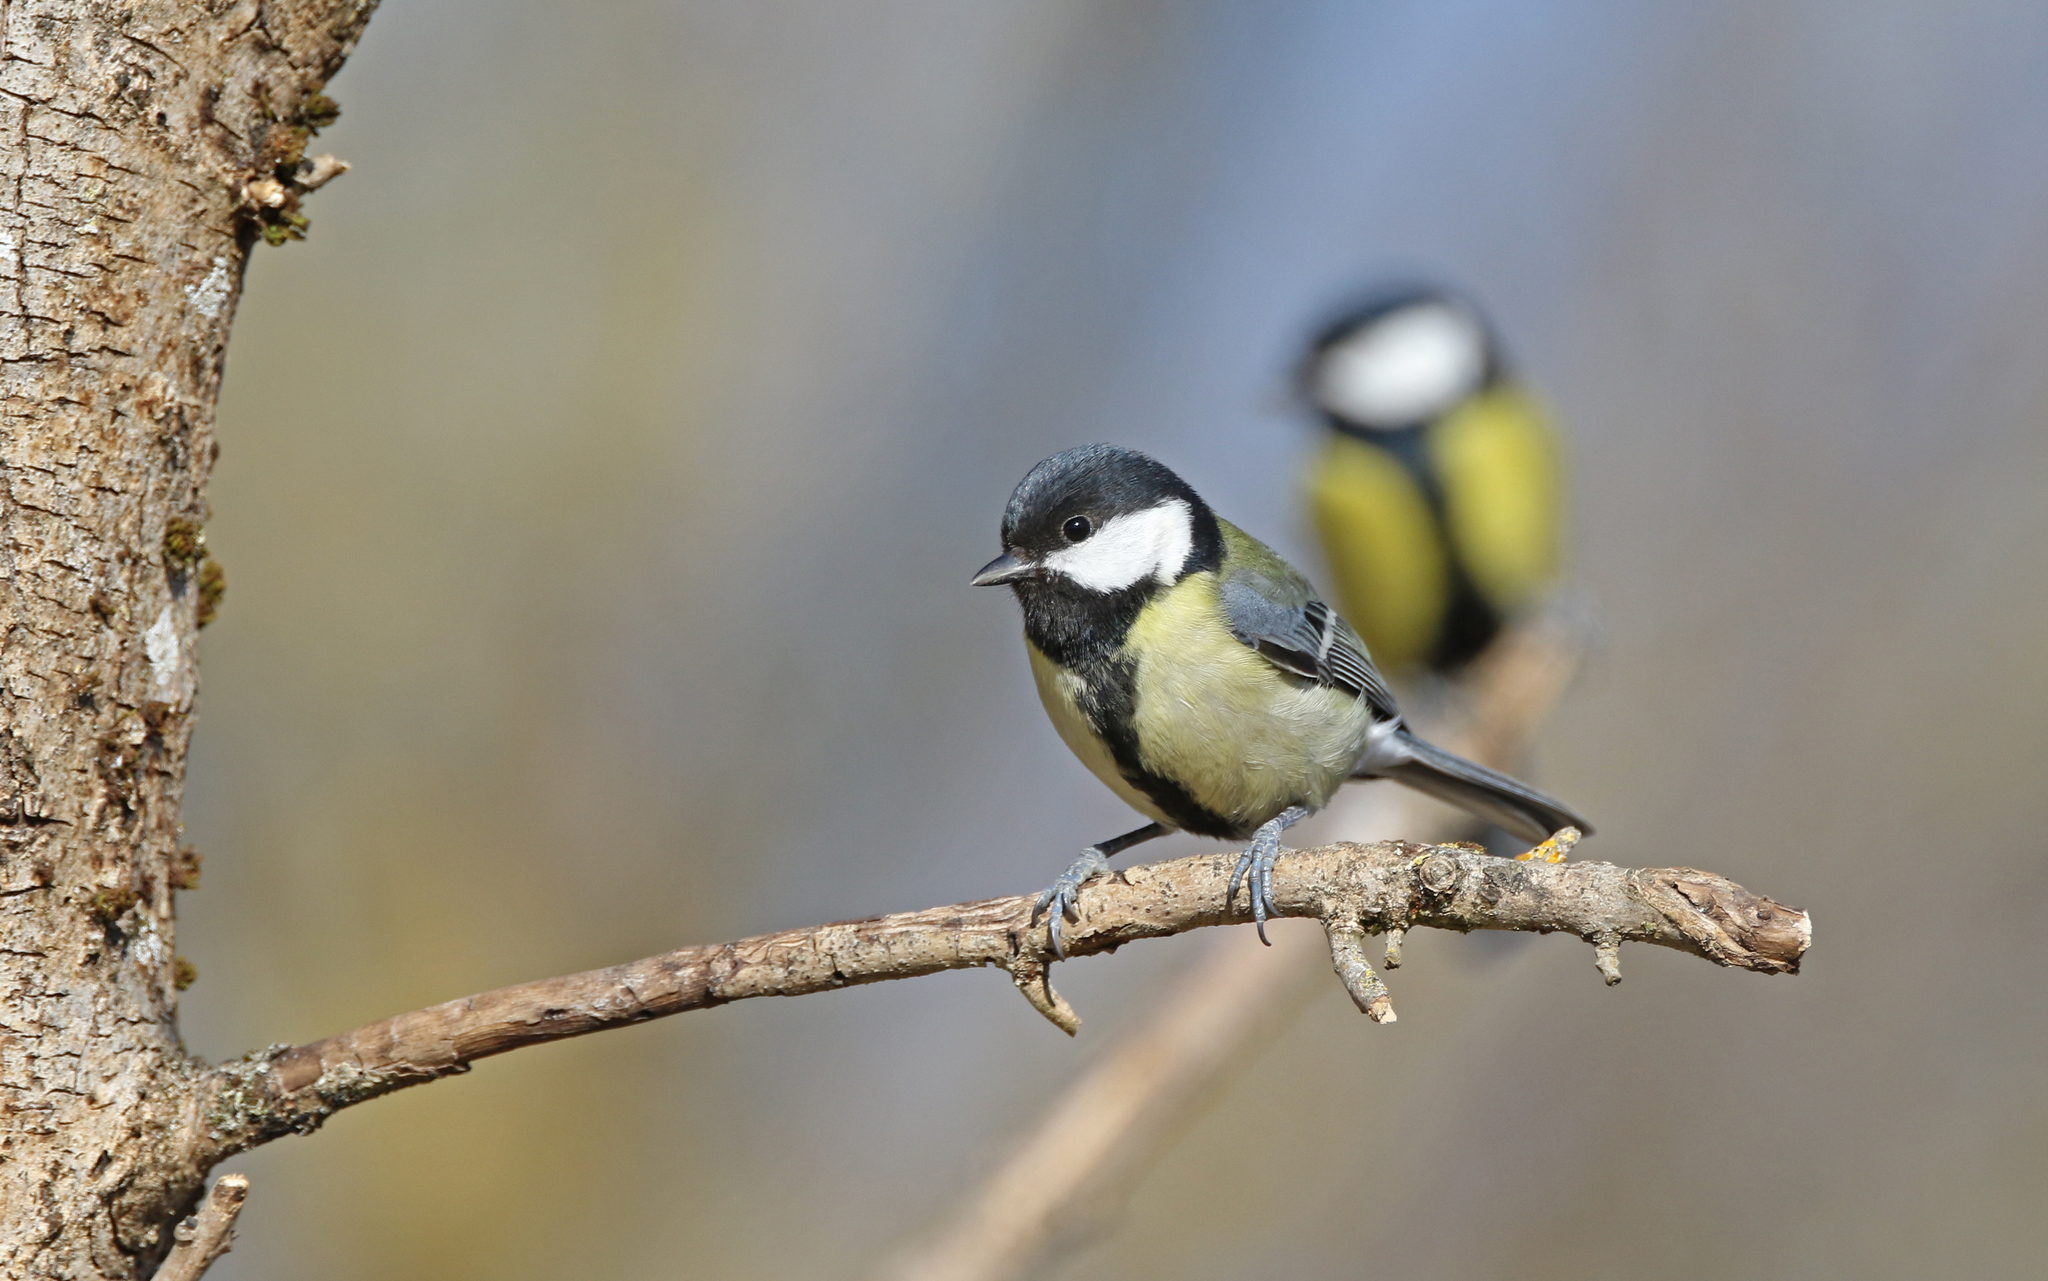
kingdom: Animalia
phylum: Chordata
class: Aves
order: Passeriformes
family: Paridae
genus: Parus
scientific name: Parus major
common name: Great tit
